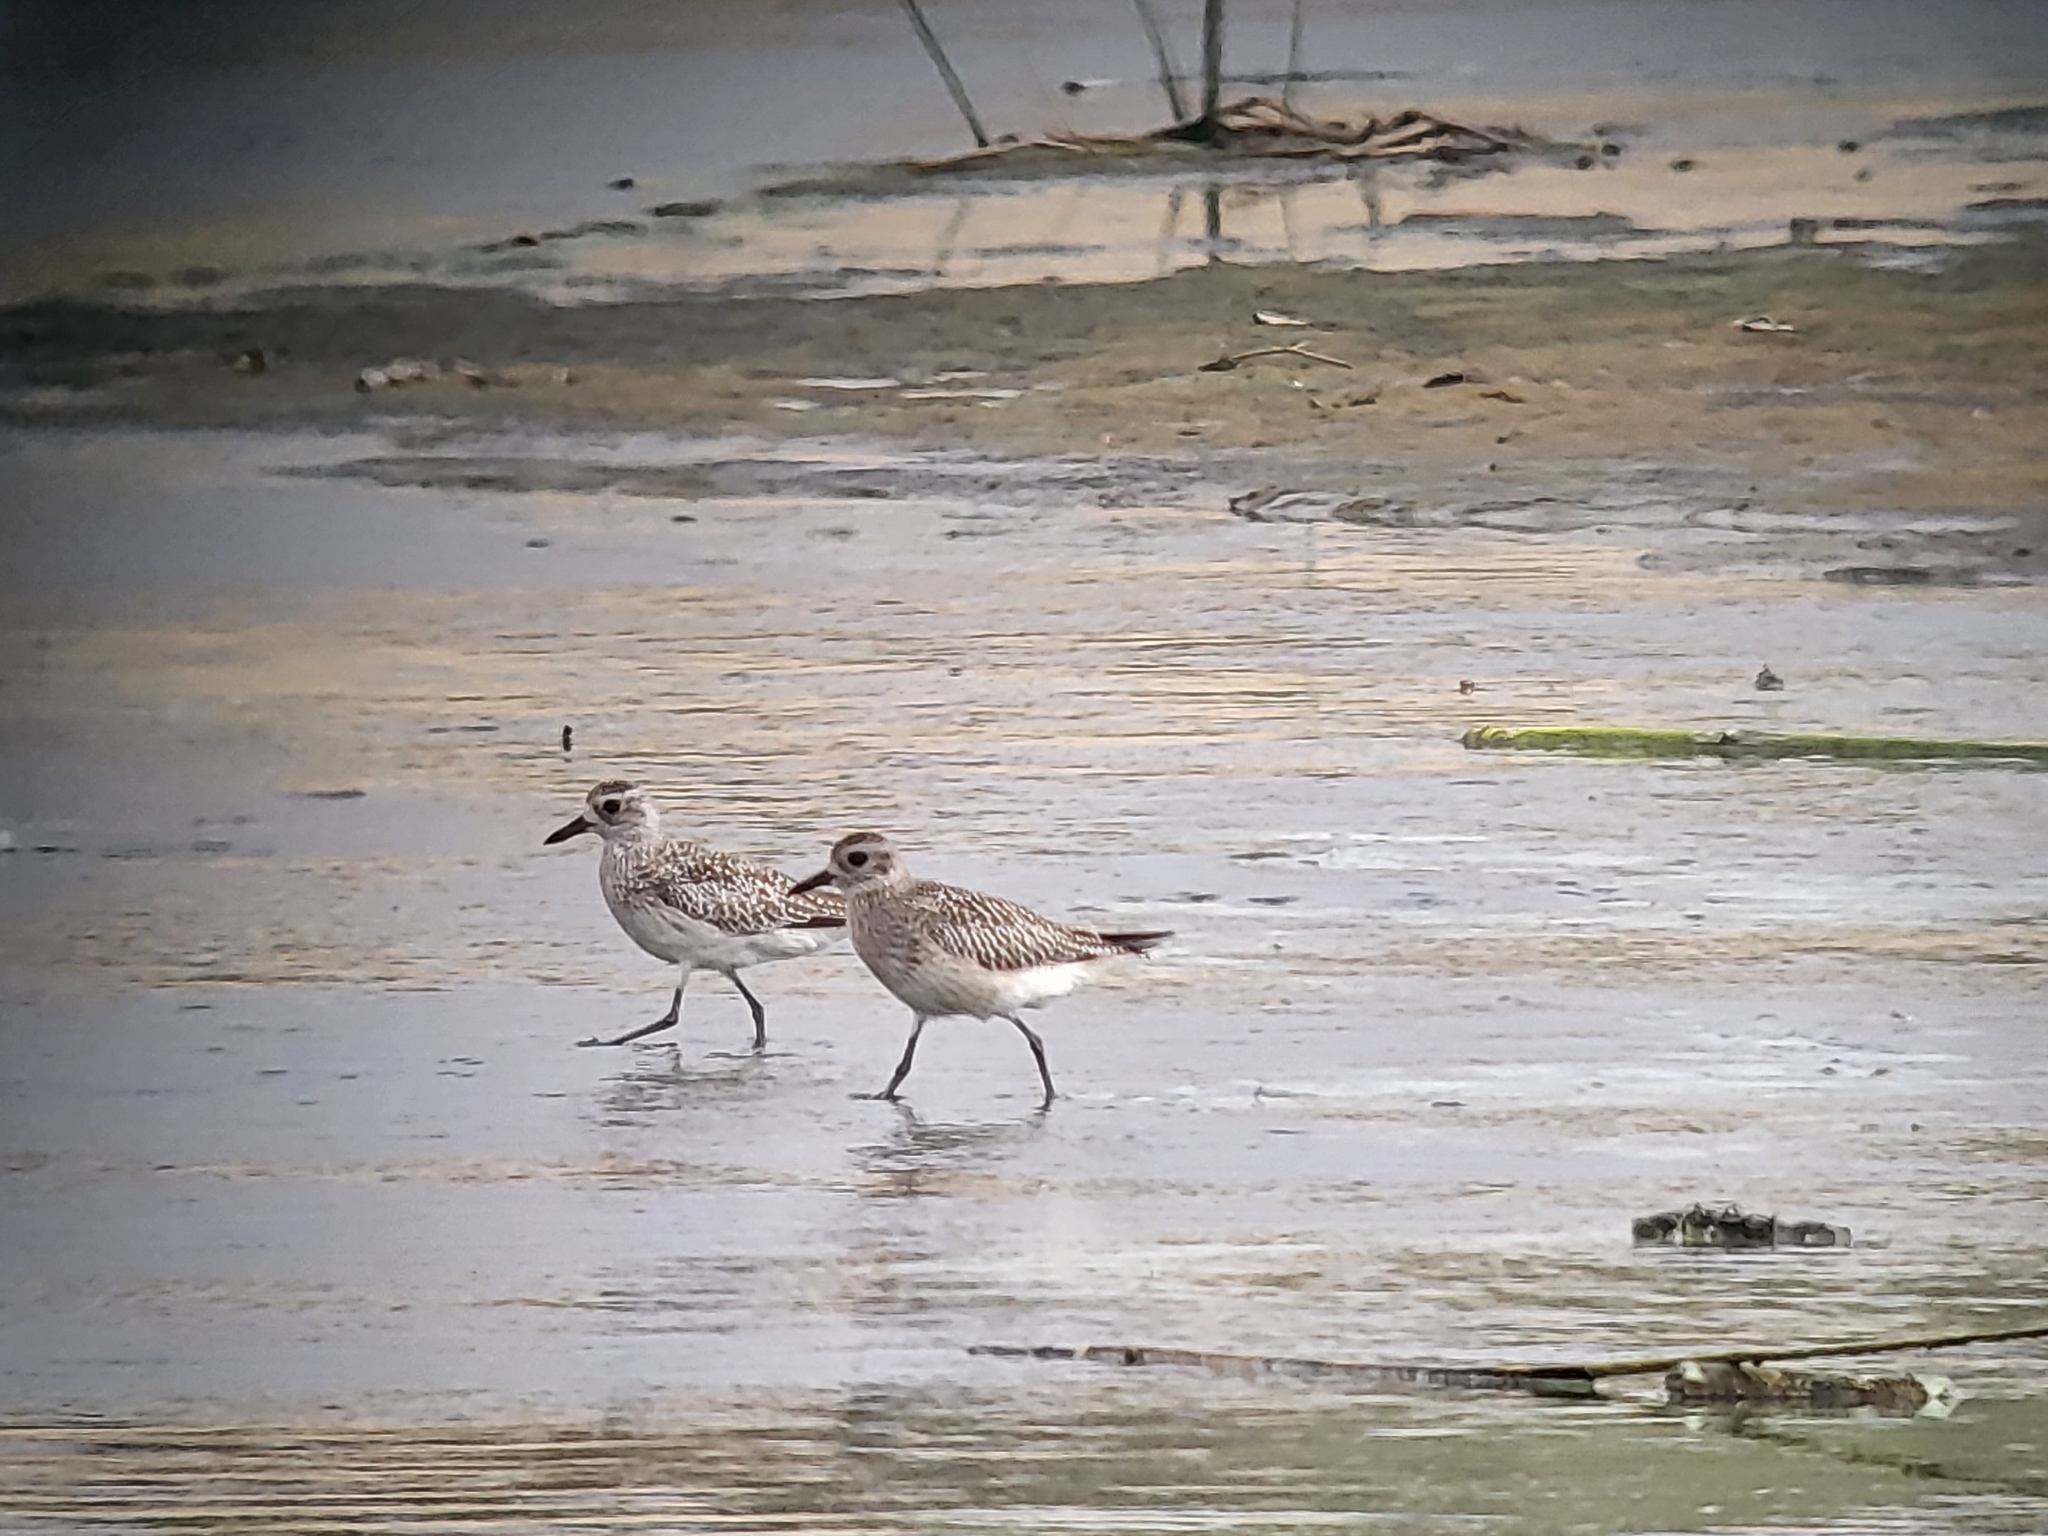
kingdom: Animalia
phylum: Chordata
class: Aves
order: Charadriiformes
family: Charadriidae
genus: Pluvialis
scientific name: Pluvialis squatarola
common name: Grey plover
